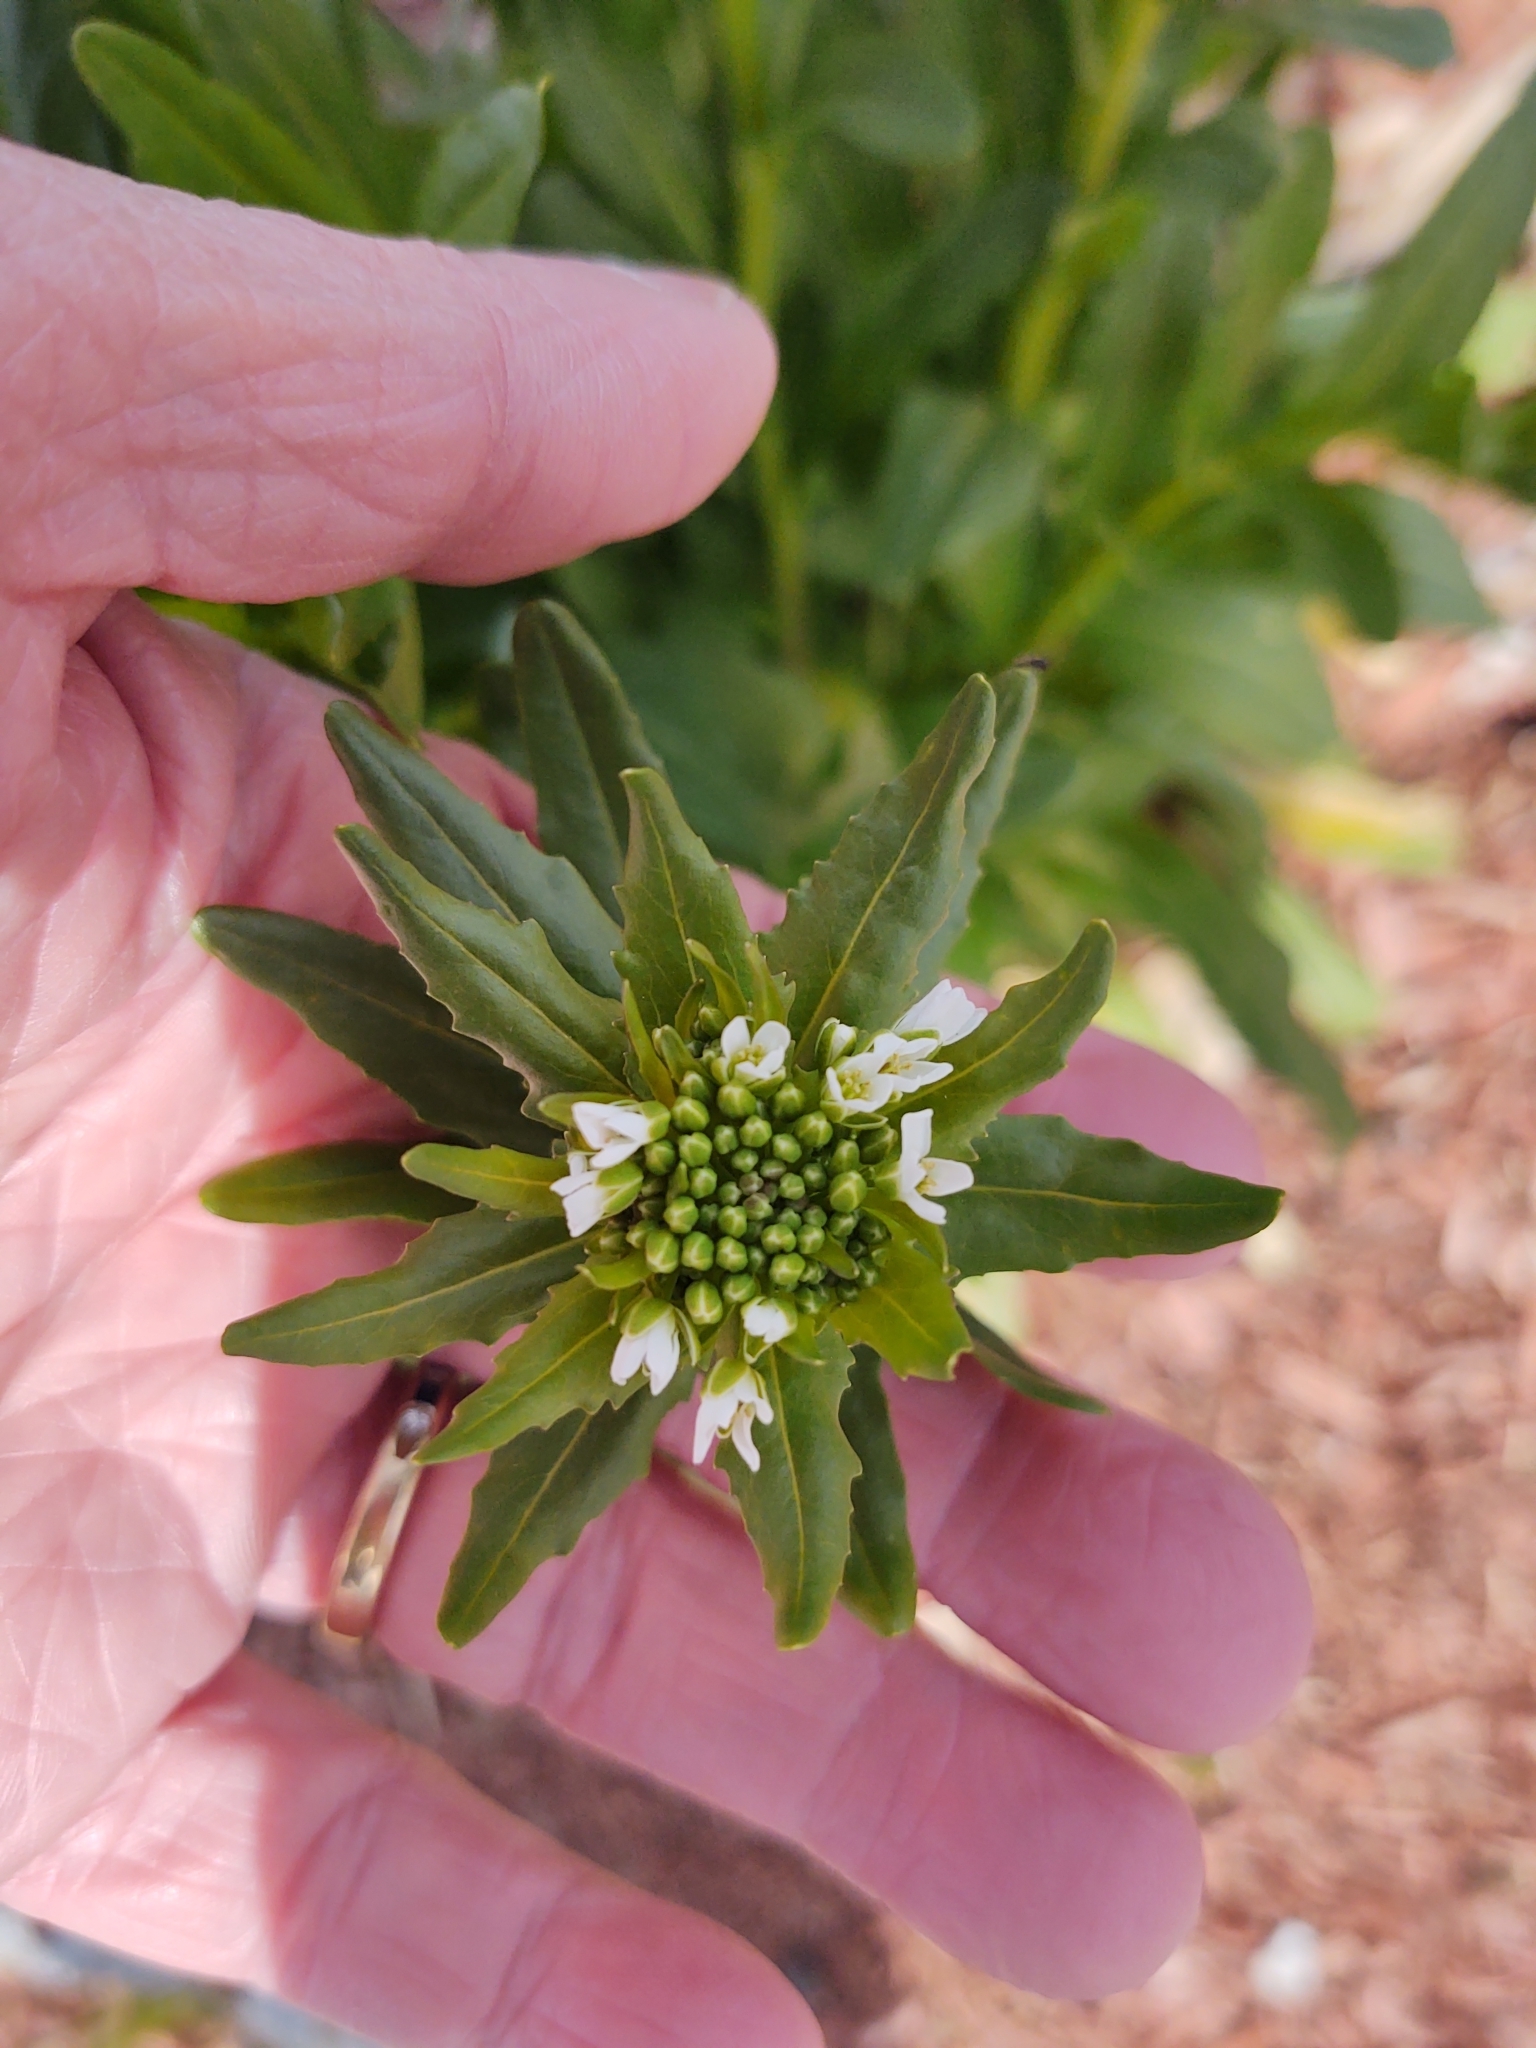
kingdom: Plantae
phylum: Tracheophyta
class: Magnoliopsida
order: Brassicales
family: Brassicaceae
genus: Thlaspi
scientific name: Thlaspi arvense
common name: Field pennycress
